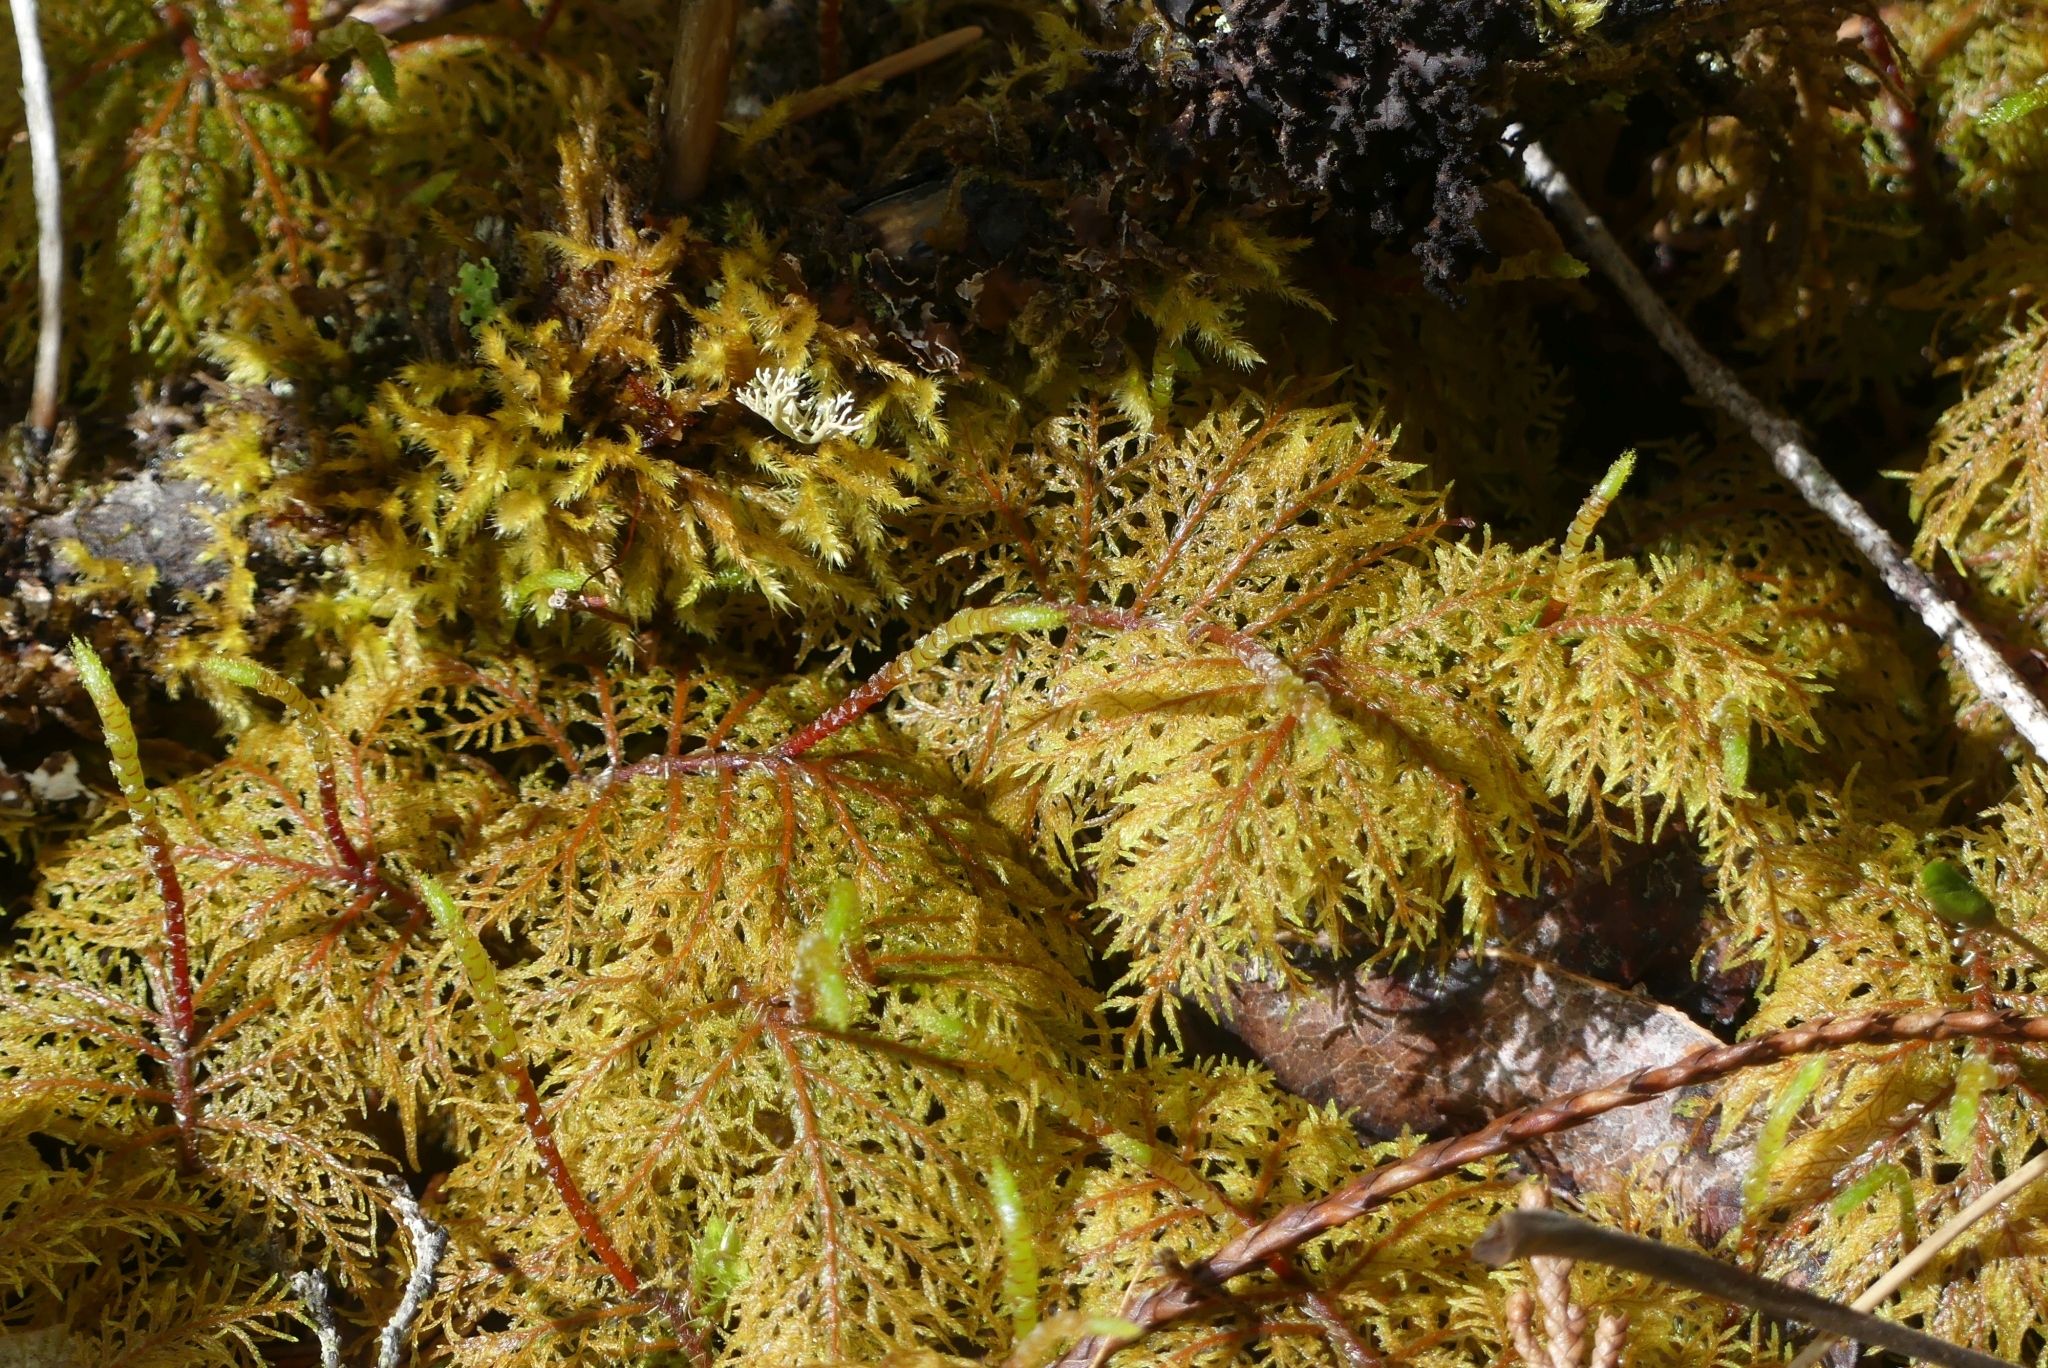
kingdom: Plantae
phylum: Bryophyta
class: Bryopsida
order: Hypnales
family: Hylocomiaceae
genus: Hylocomium
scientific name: Hylocomium splendens
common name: Stairstep moss
